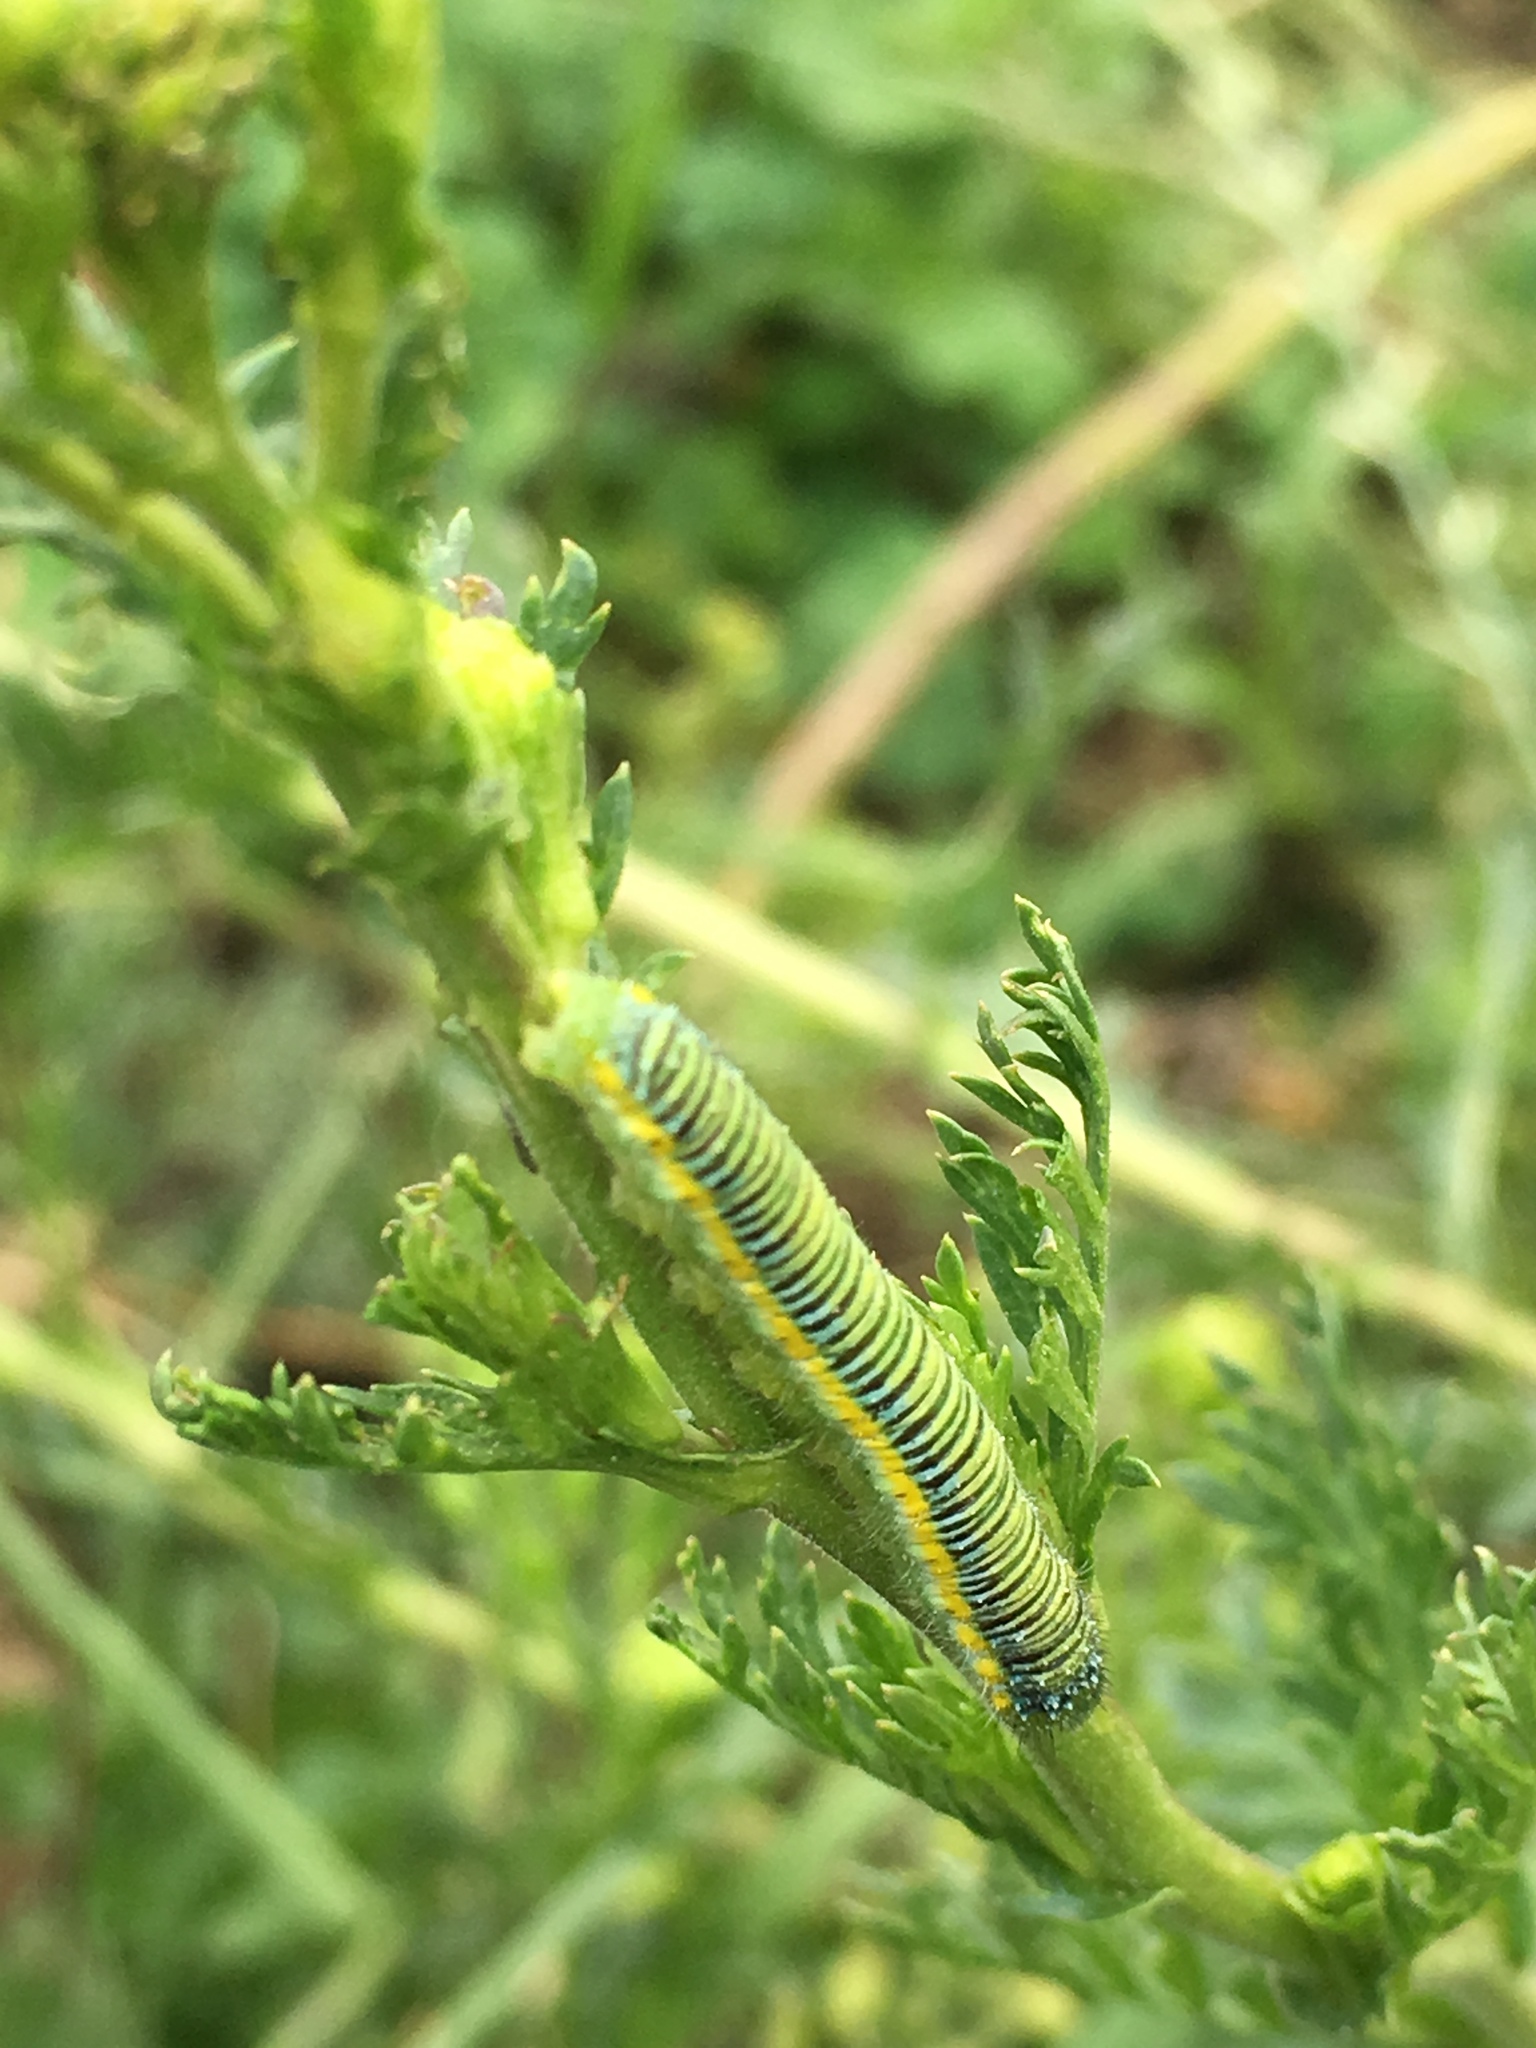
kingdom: Animalia
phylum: Arthropoda
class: Insecta
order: Lepidoptera
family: Pieridae
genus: Leptophobia
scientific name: Leptophobia aripa
